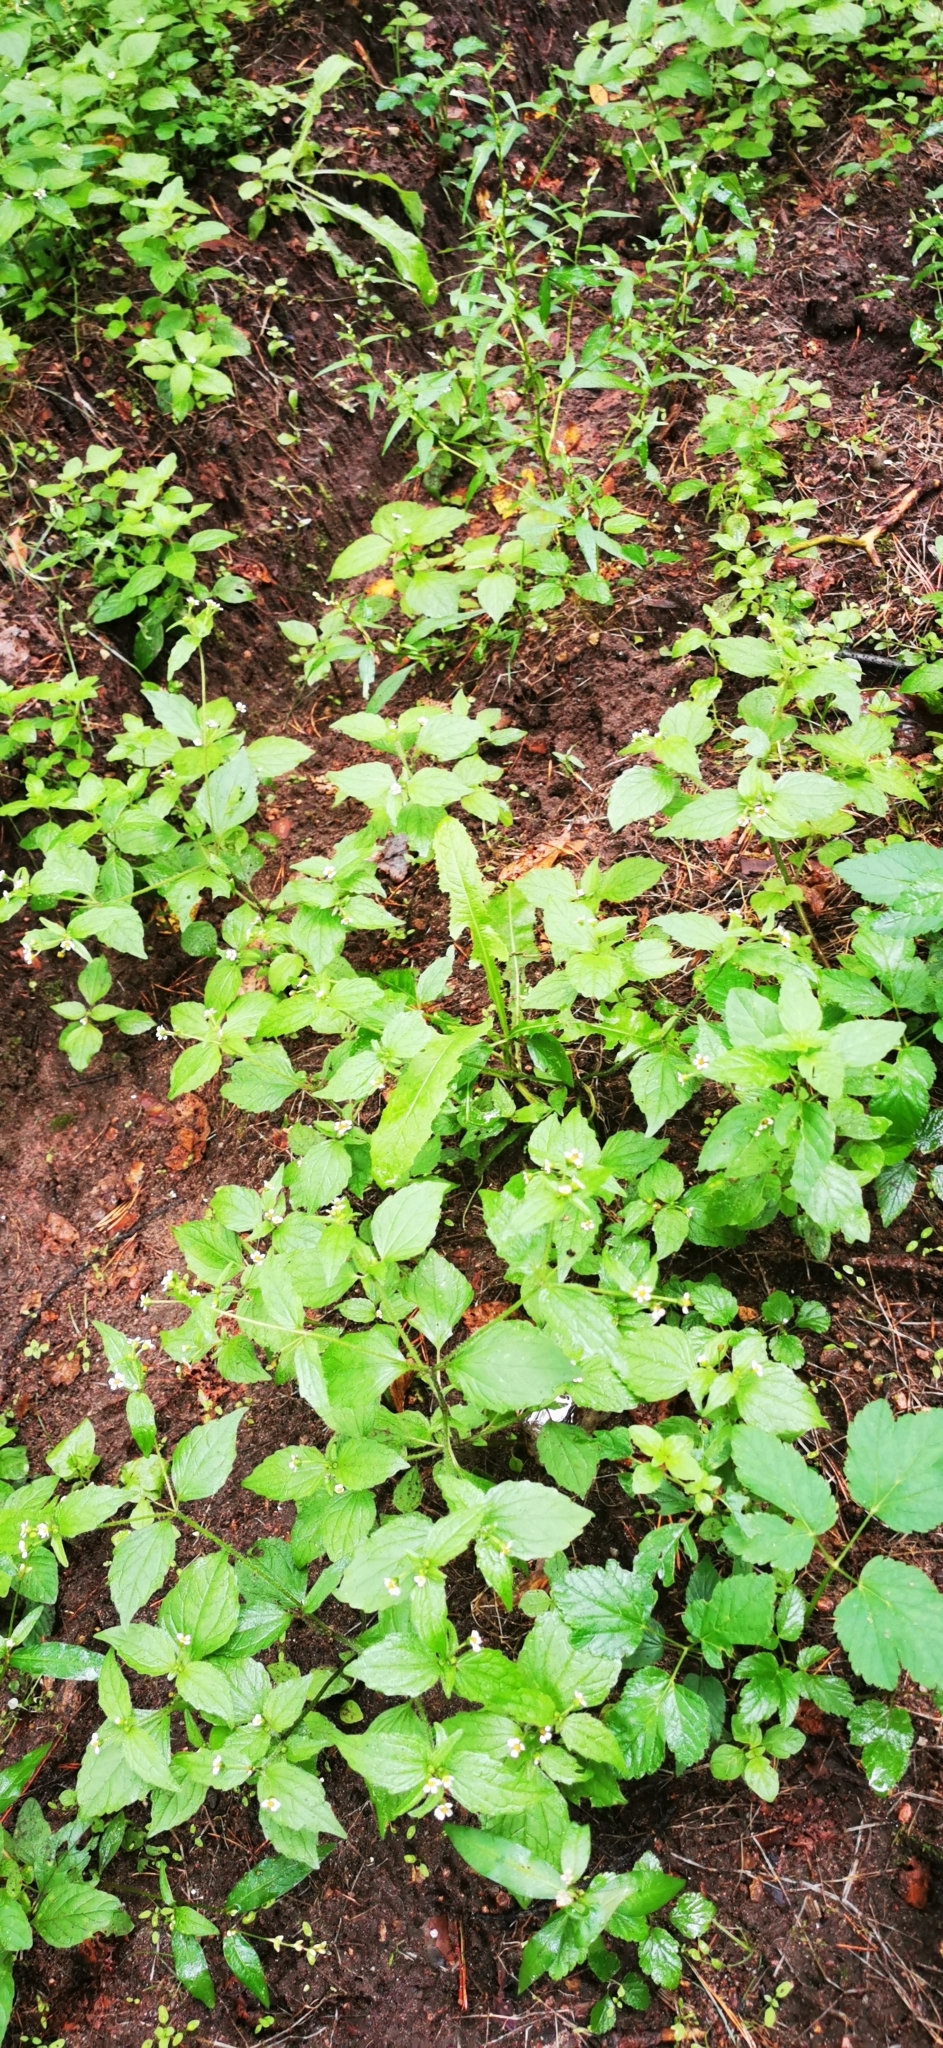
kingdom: Plantae
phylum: Tracheophyta
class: Magnoliopsida
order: Asterales
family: Asteraceae
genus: Galinsoga
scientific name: Galinsoga quadriradiata
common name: Shaggy soldier
